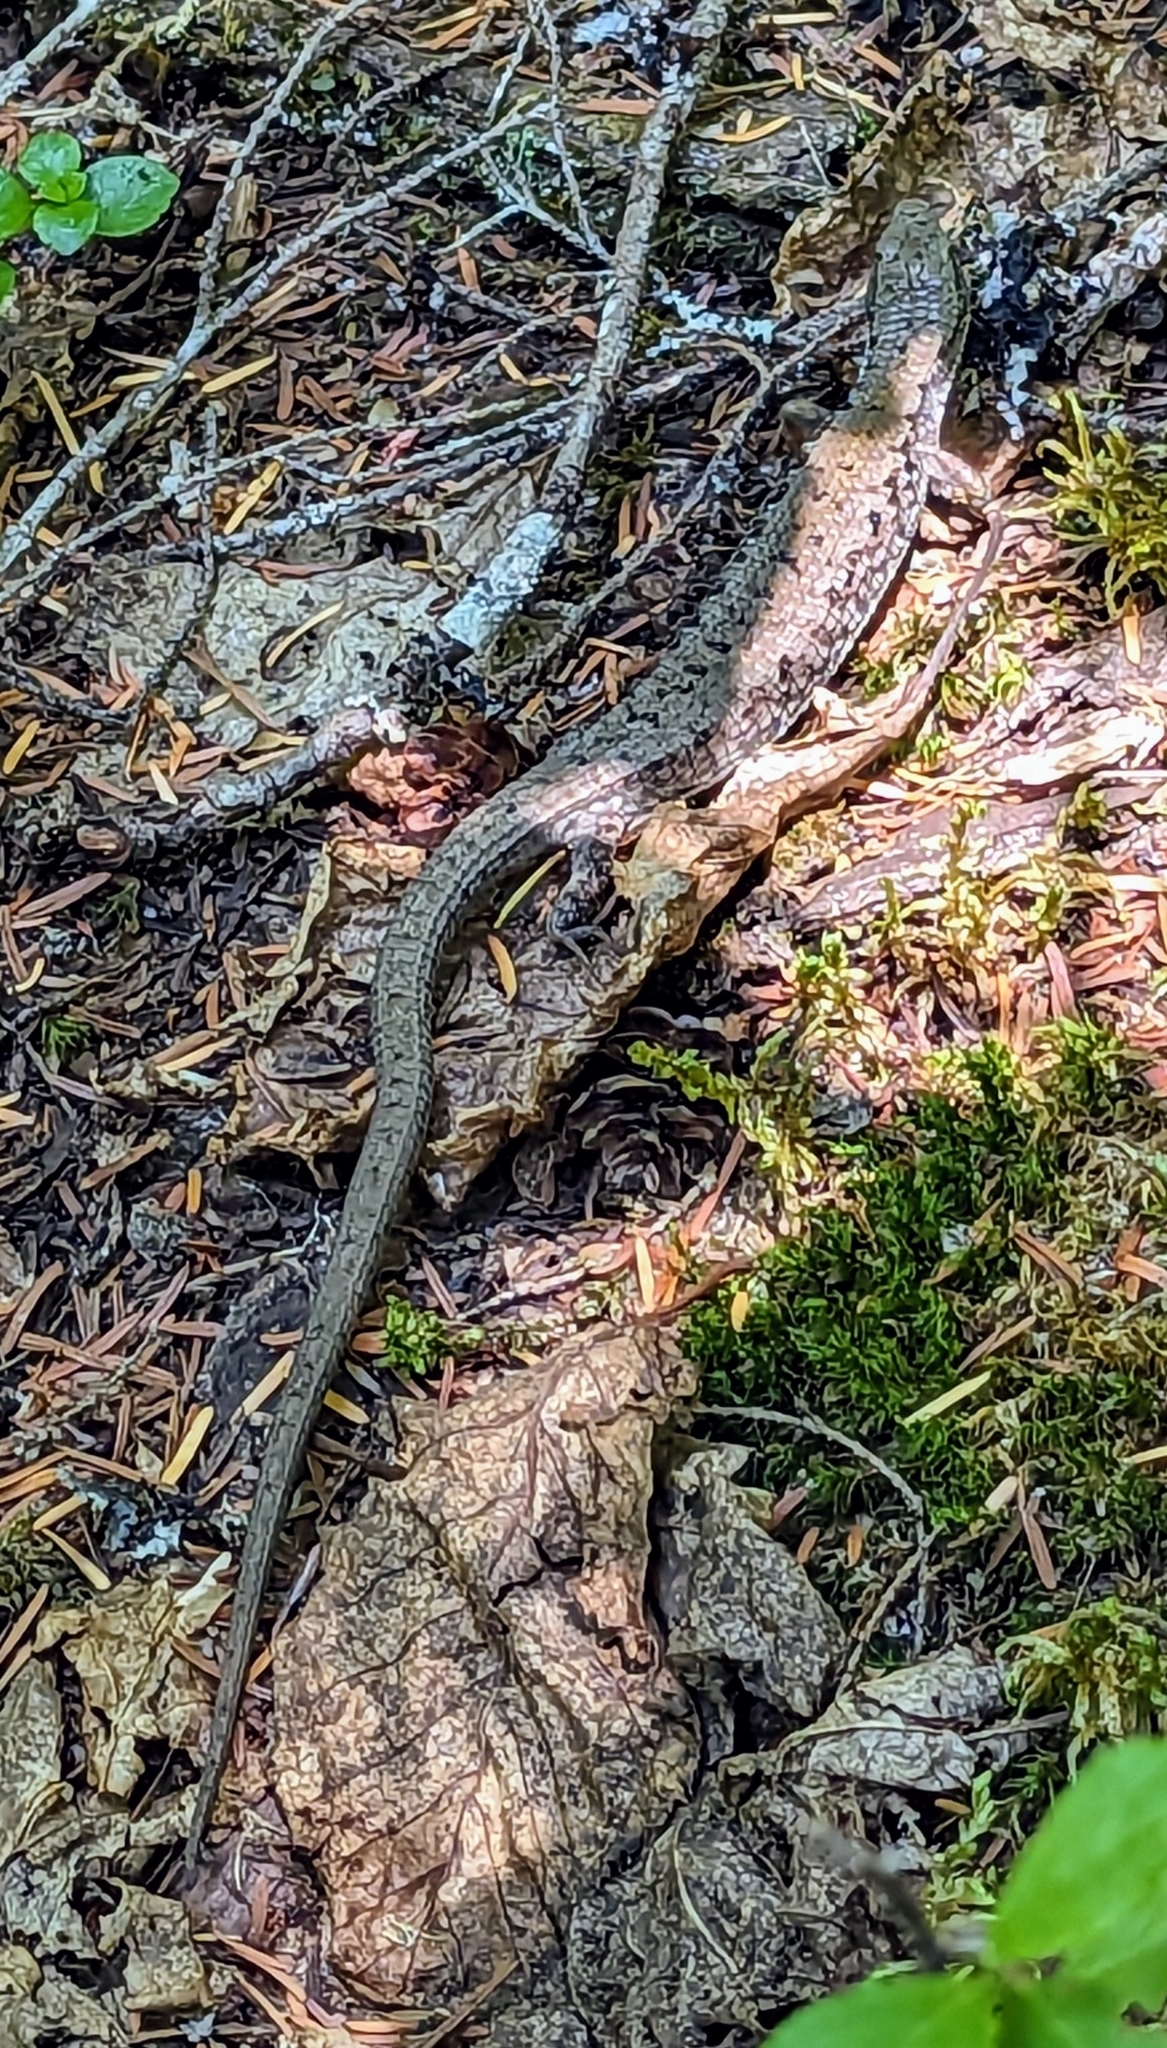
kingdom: Animalia
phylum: Chordata
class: Squamata
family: Anguidae
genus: Elgaria
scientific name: Elgaria coerulea
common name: Northern alligator lizard
